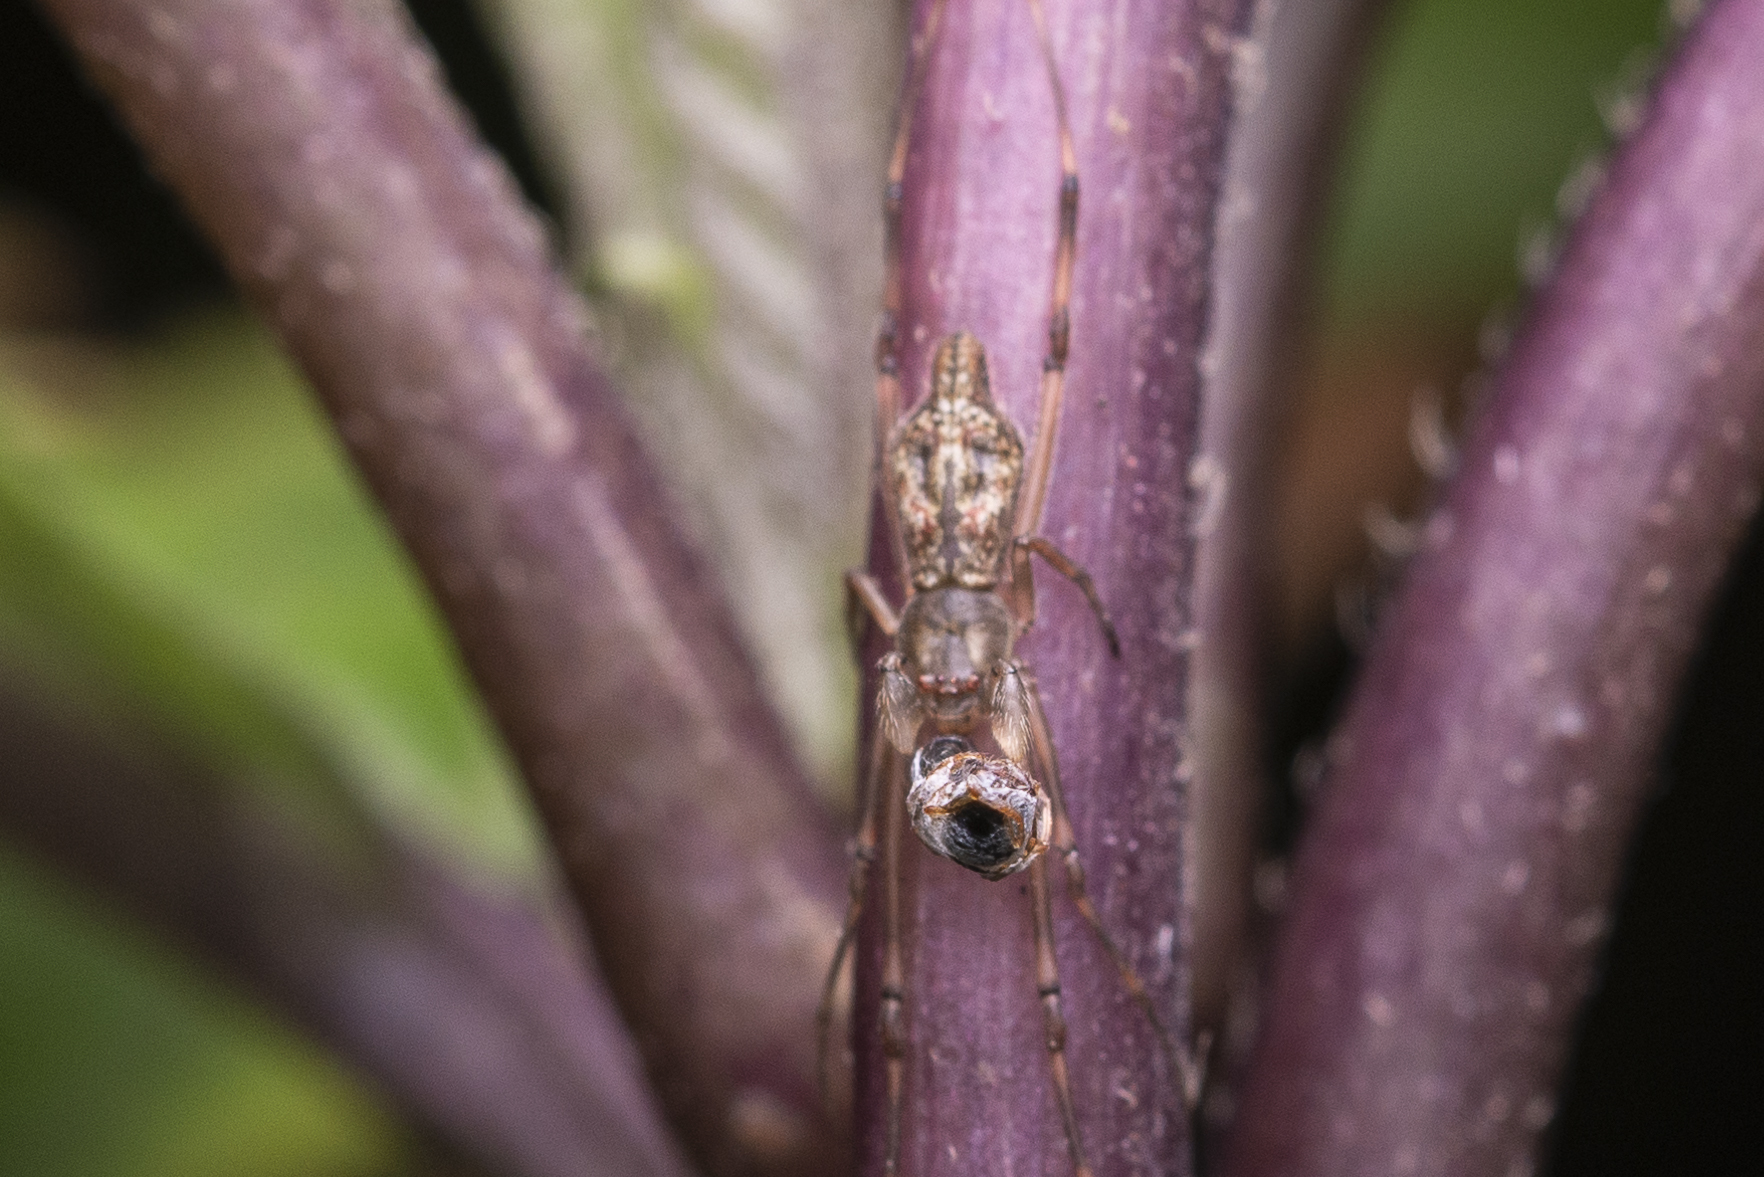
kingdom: Animalia
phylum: Arthropoda
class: Arachnida
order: Araneae
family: Theridiidae
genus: Moneta
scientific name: Moneta mirabilis
